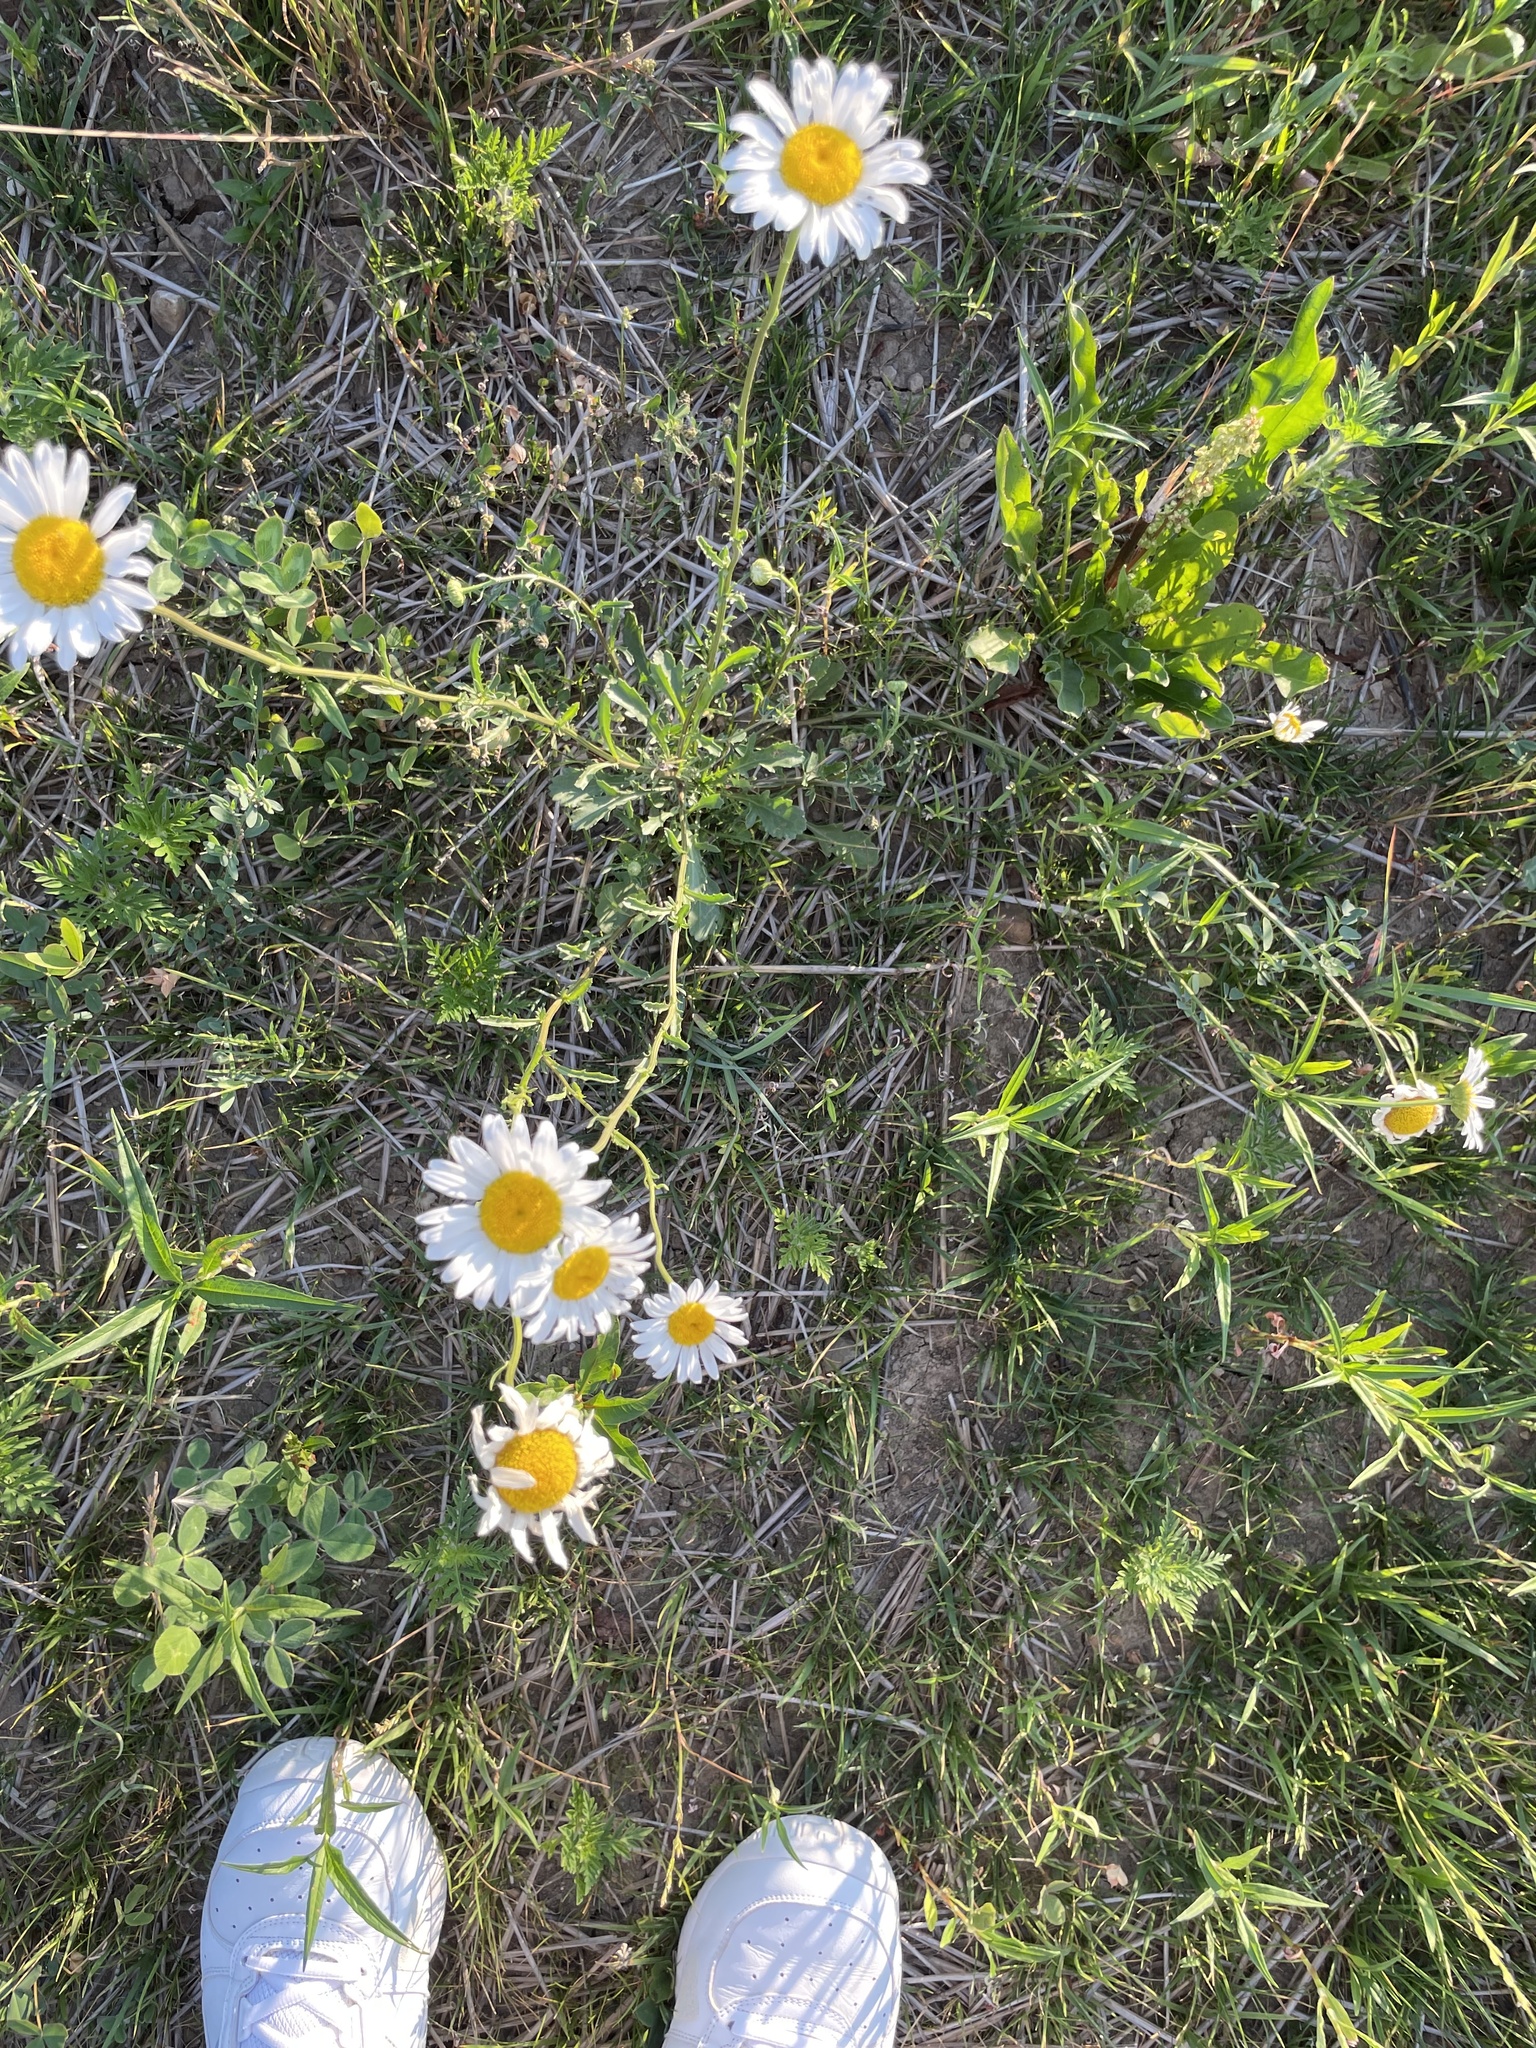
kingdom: Plantae
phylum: Tracheophyta
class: Magnoliopsida
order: Asterales
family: Asteraceae
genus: Leucanthemum
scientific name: Leucanthemum vulgare
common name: Oxeye daisy
